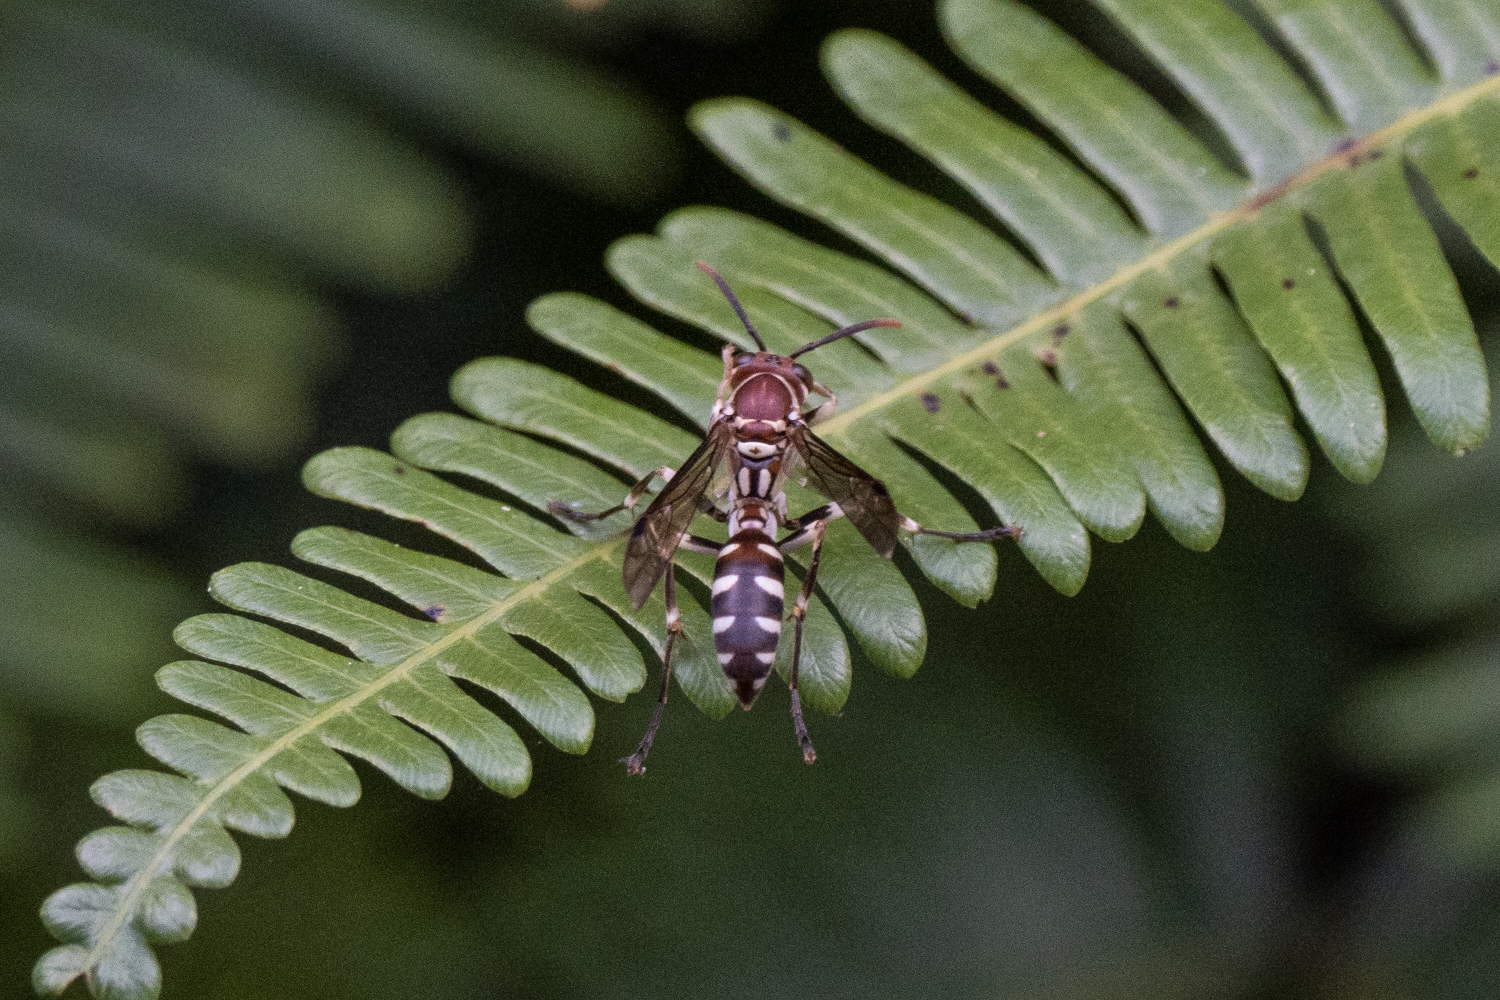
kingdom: Animalia
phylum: Arthropoda
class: Insecta
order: Hymenoptera
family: Vespidae
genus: Parapolybia
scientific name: Parapolybia nodosa
